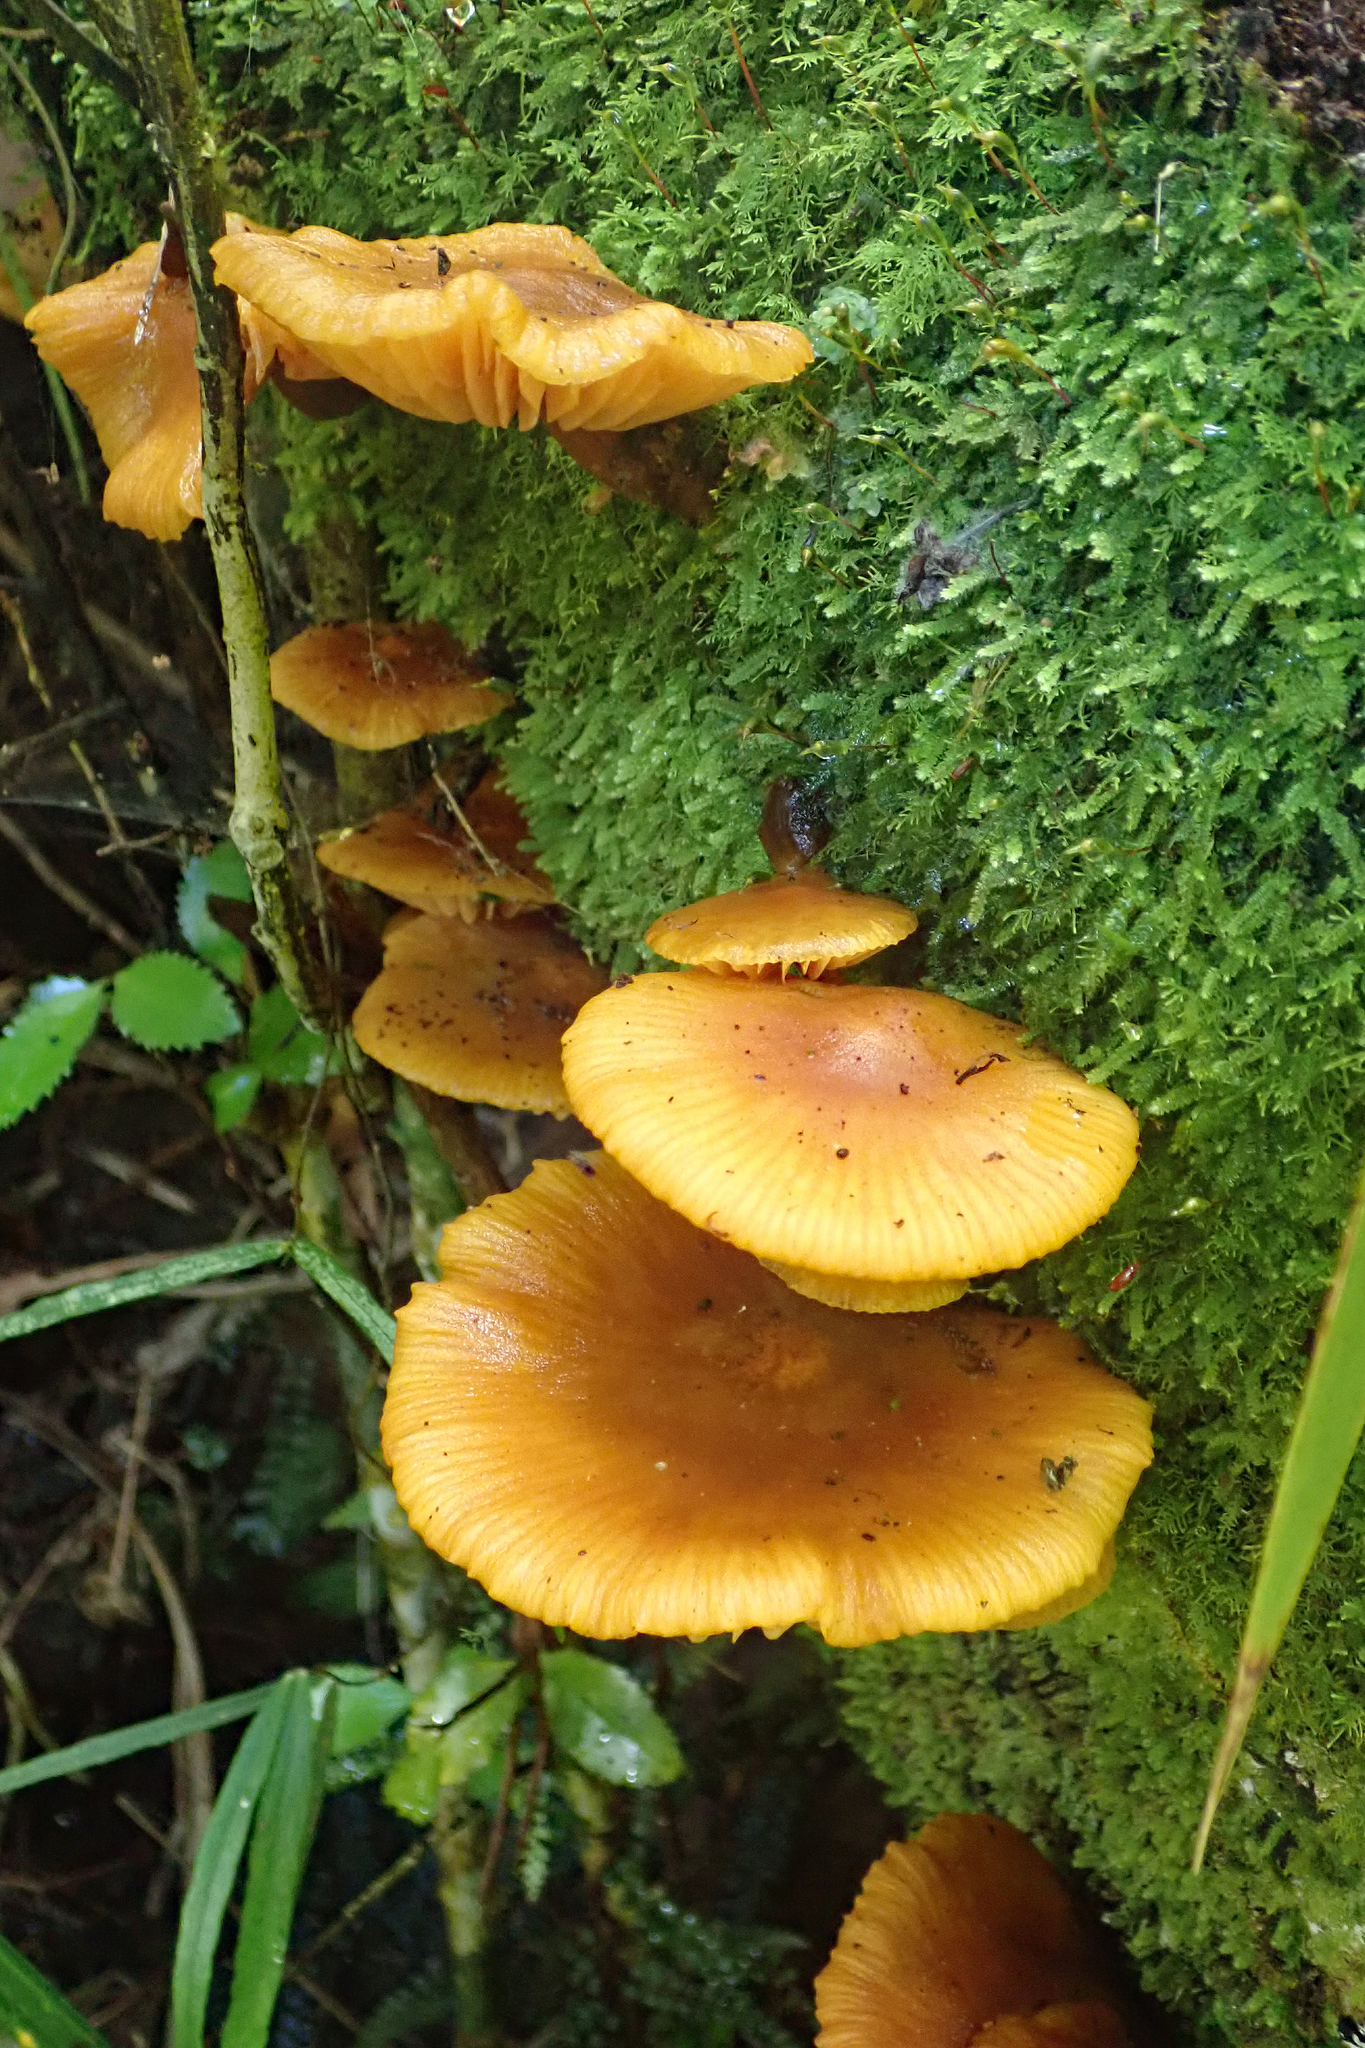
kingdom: Fungi
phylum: Basidiomycota
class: Agaricomycetes
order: Agaricales
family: Mycenaceae
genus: Heimiomyces
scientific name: Heimiomyces velutipes
